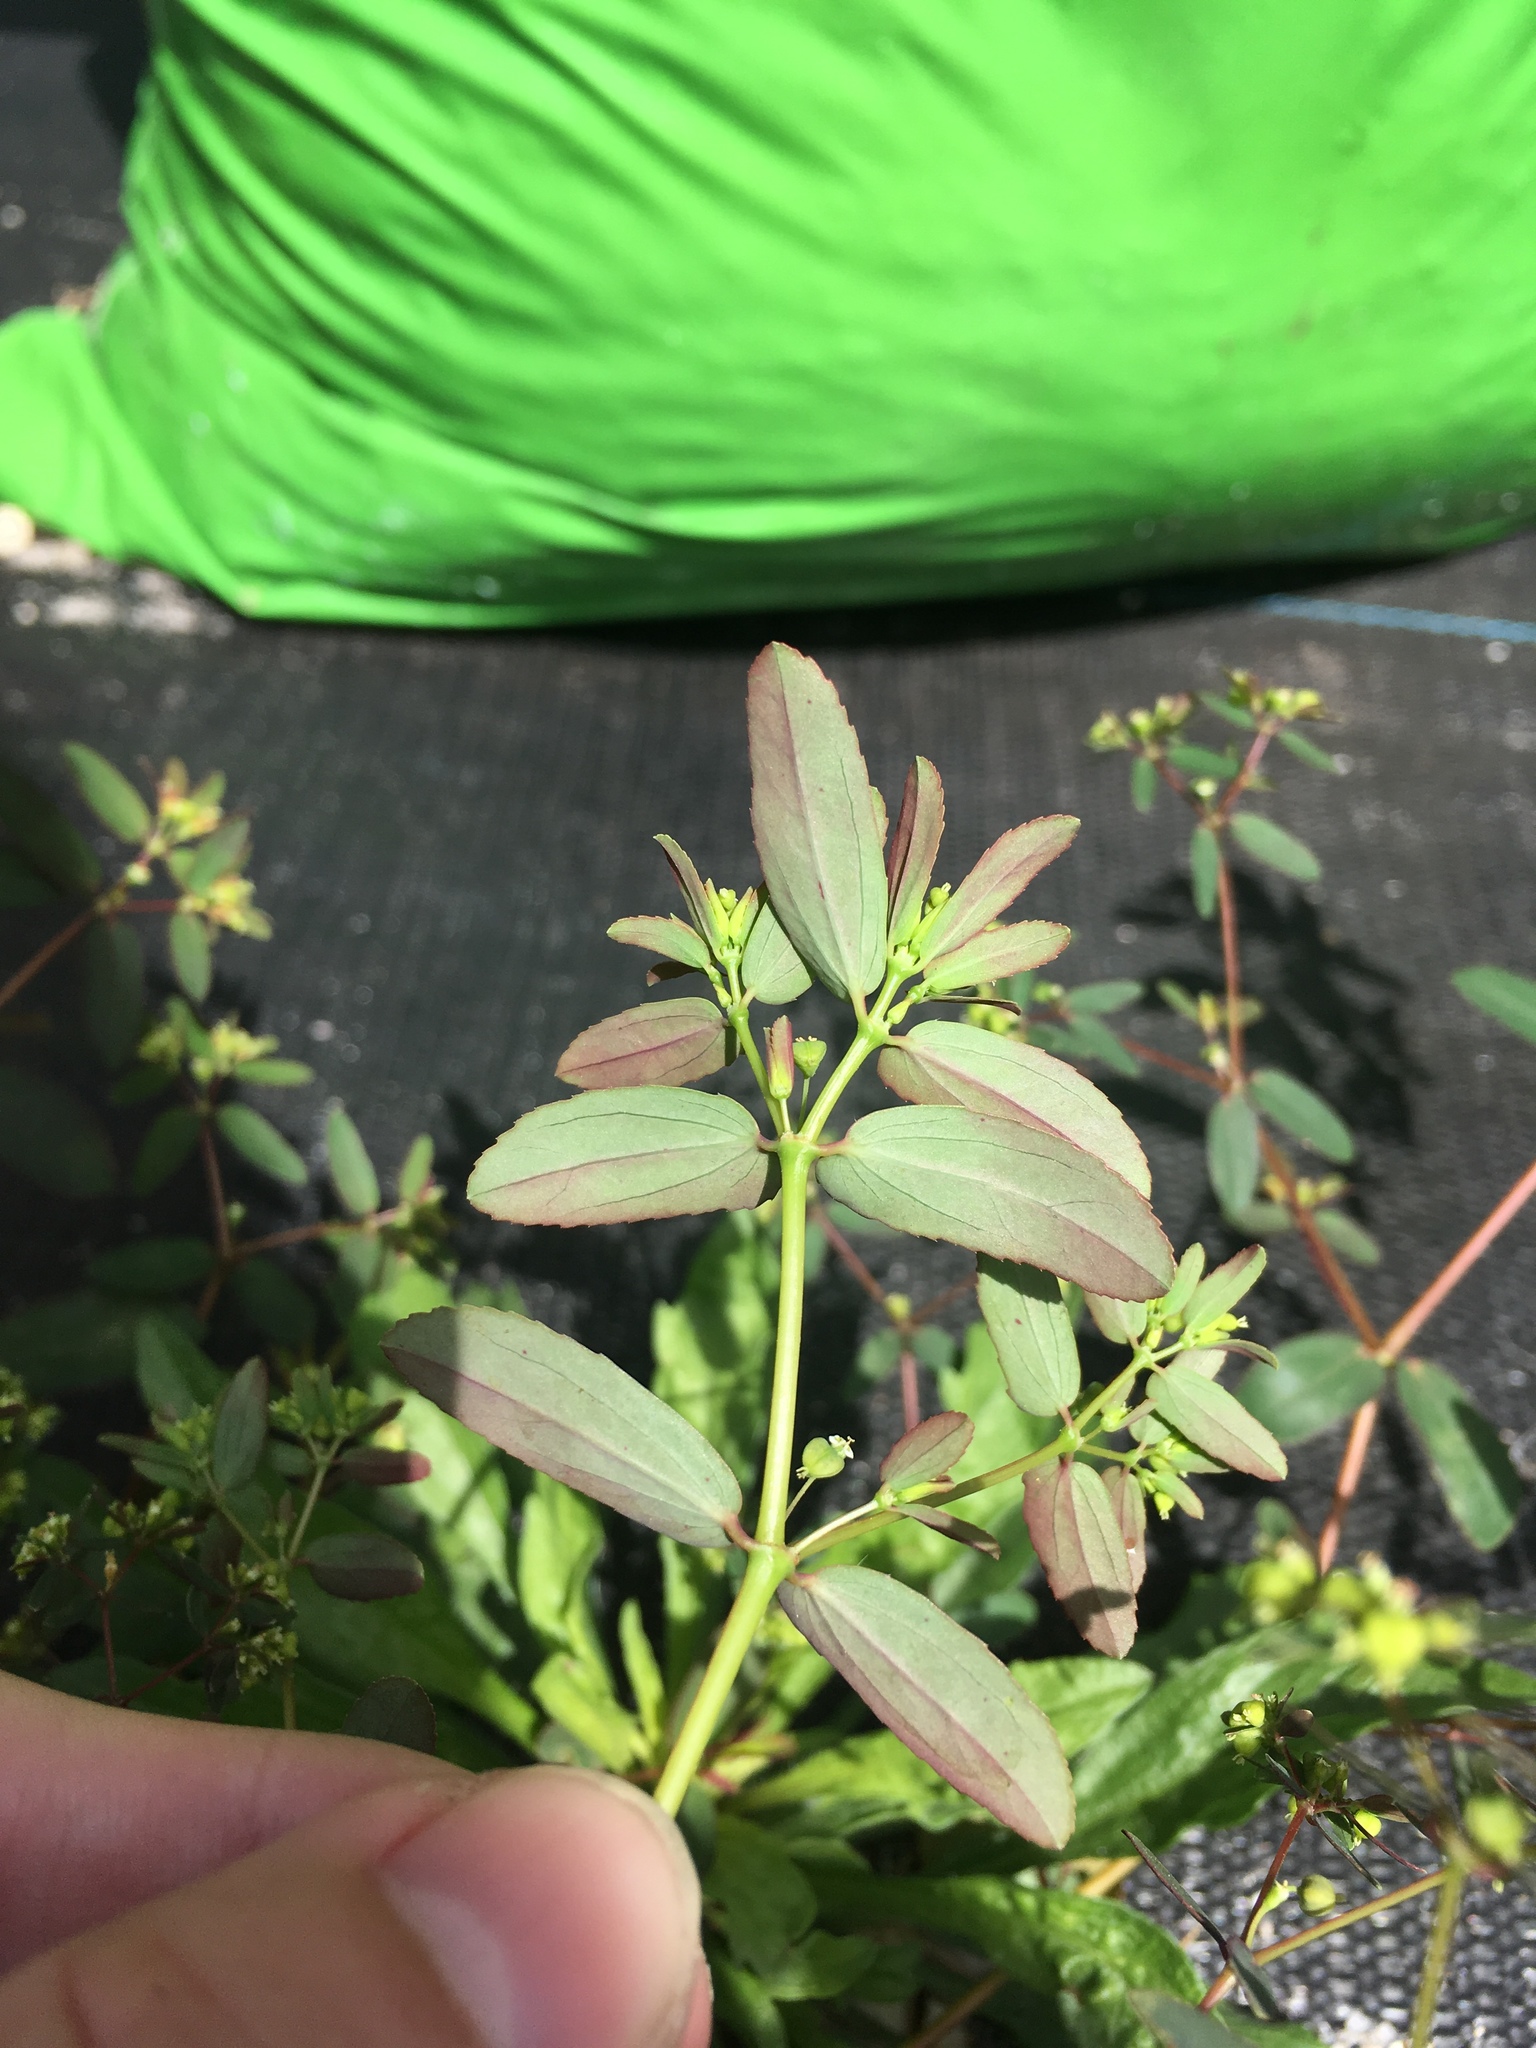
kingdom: Plantae
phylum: Tracheophyta
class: Magnoliopsida
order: Malpighiales
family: Euphorbiaceae
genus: Euphorbia
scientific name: Euphorbia hyssopifolia
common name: Hyssopleaf sandmat
